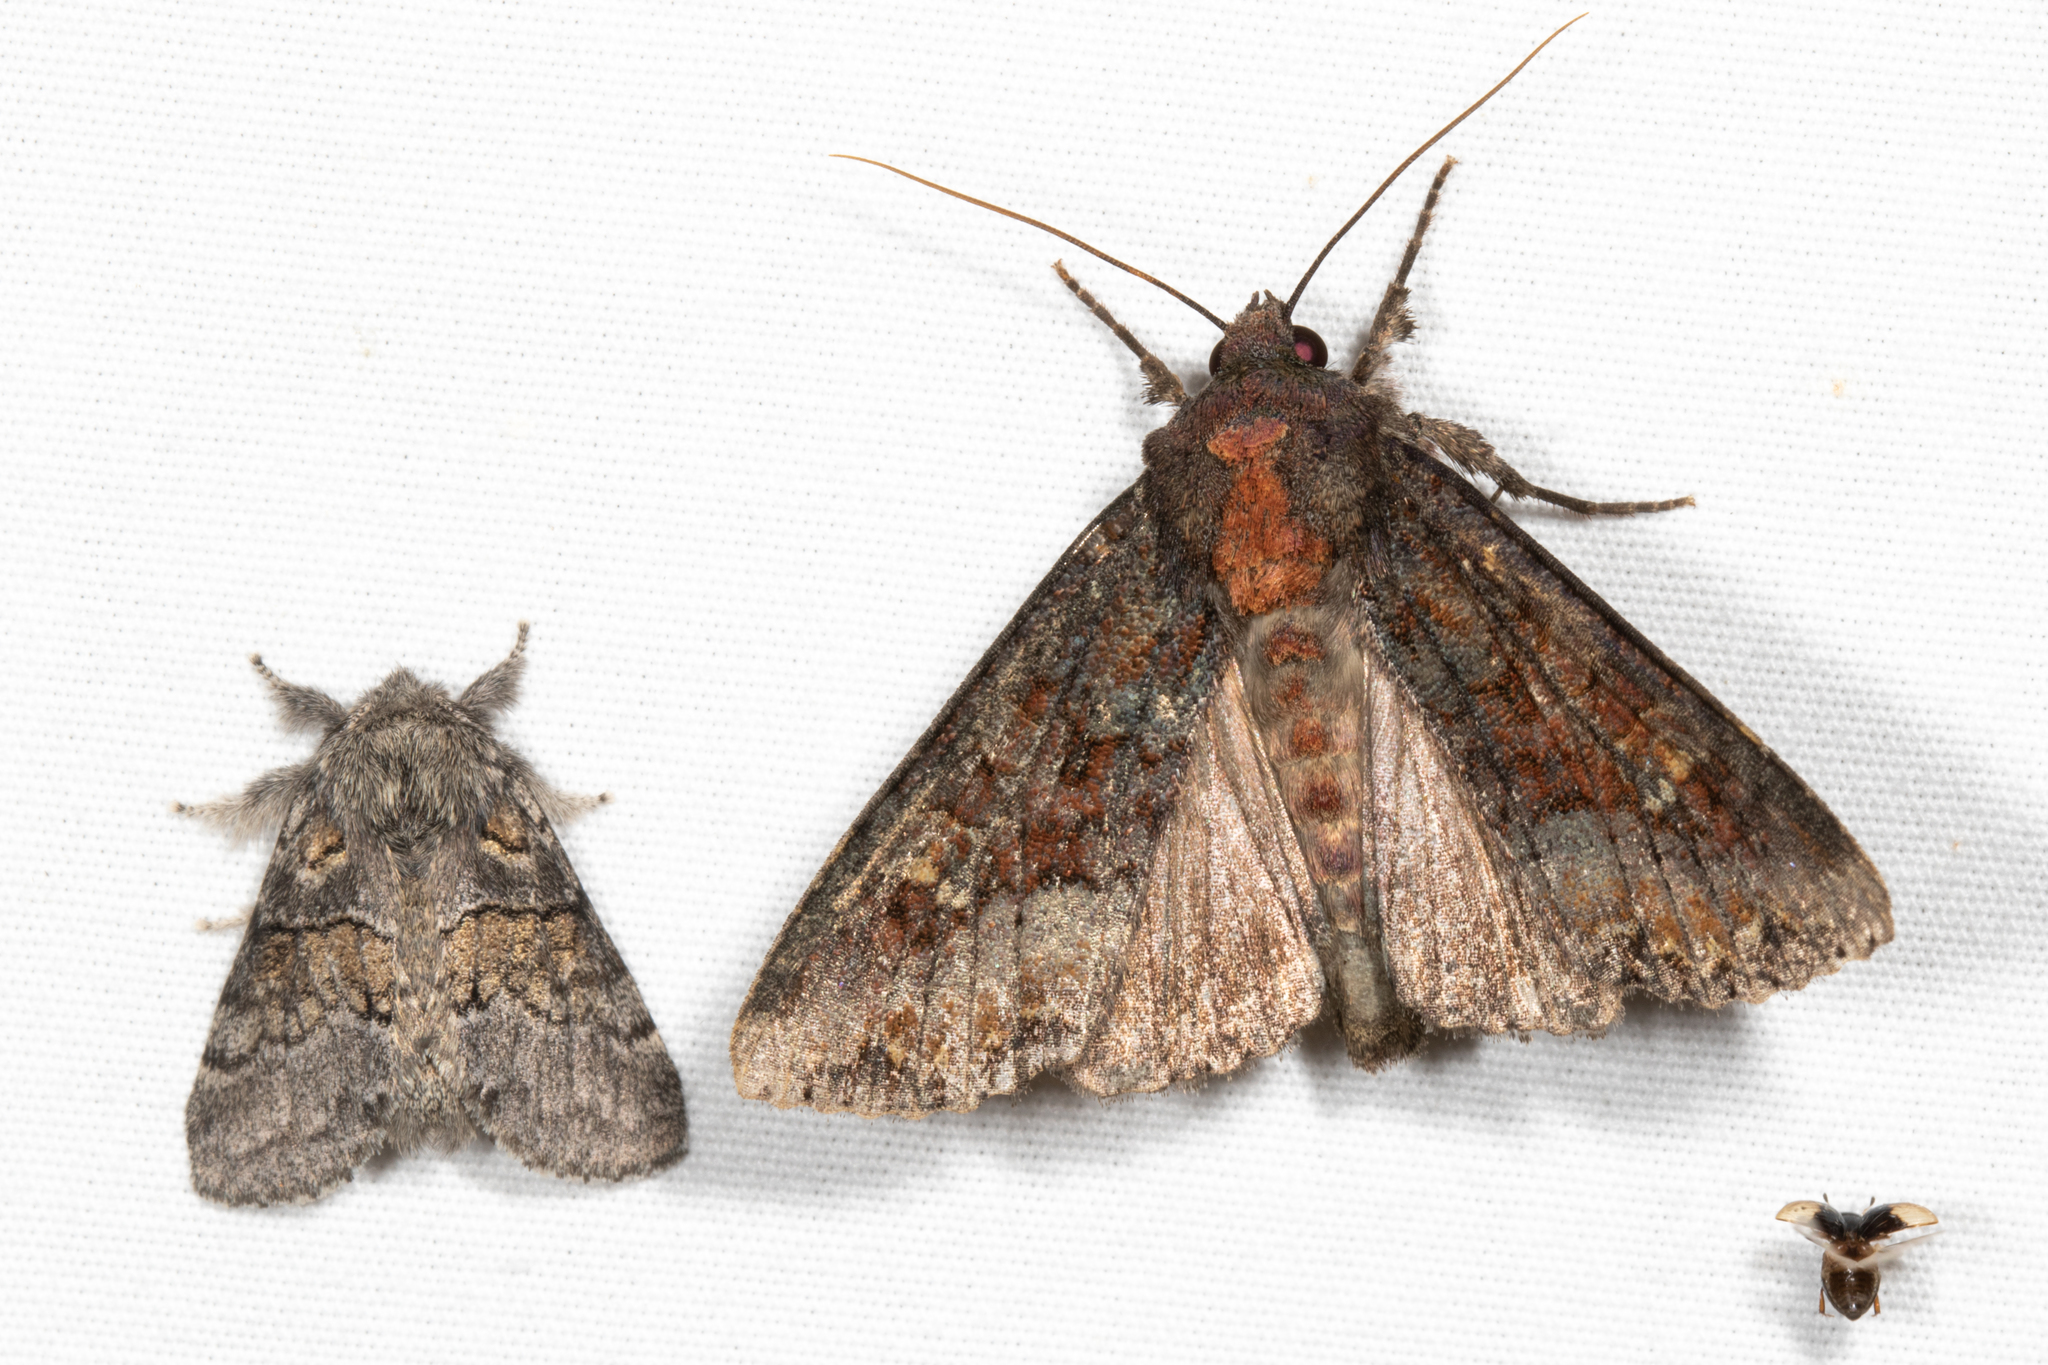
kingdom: Animalia
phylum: Arthropoda
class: Insecta
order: Lepidoptera
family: Noctuidae
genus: Apamea
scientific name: Apamea amputatrix
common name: Yellow-headed cutworm moth
